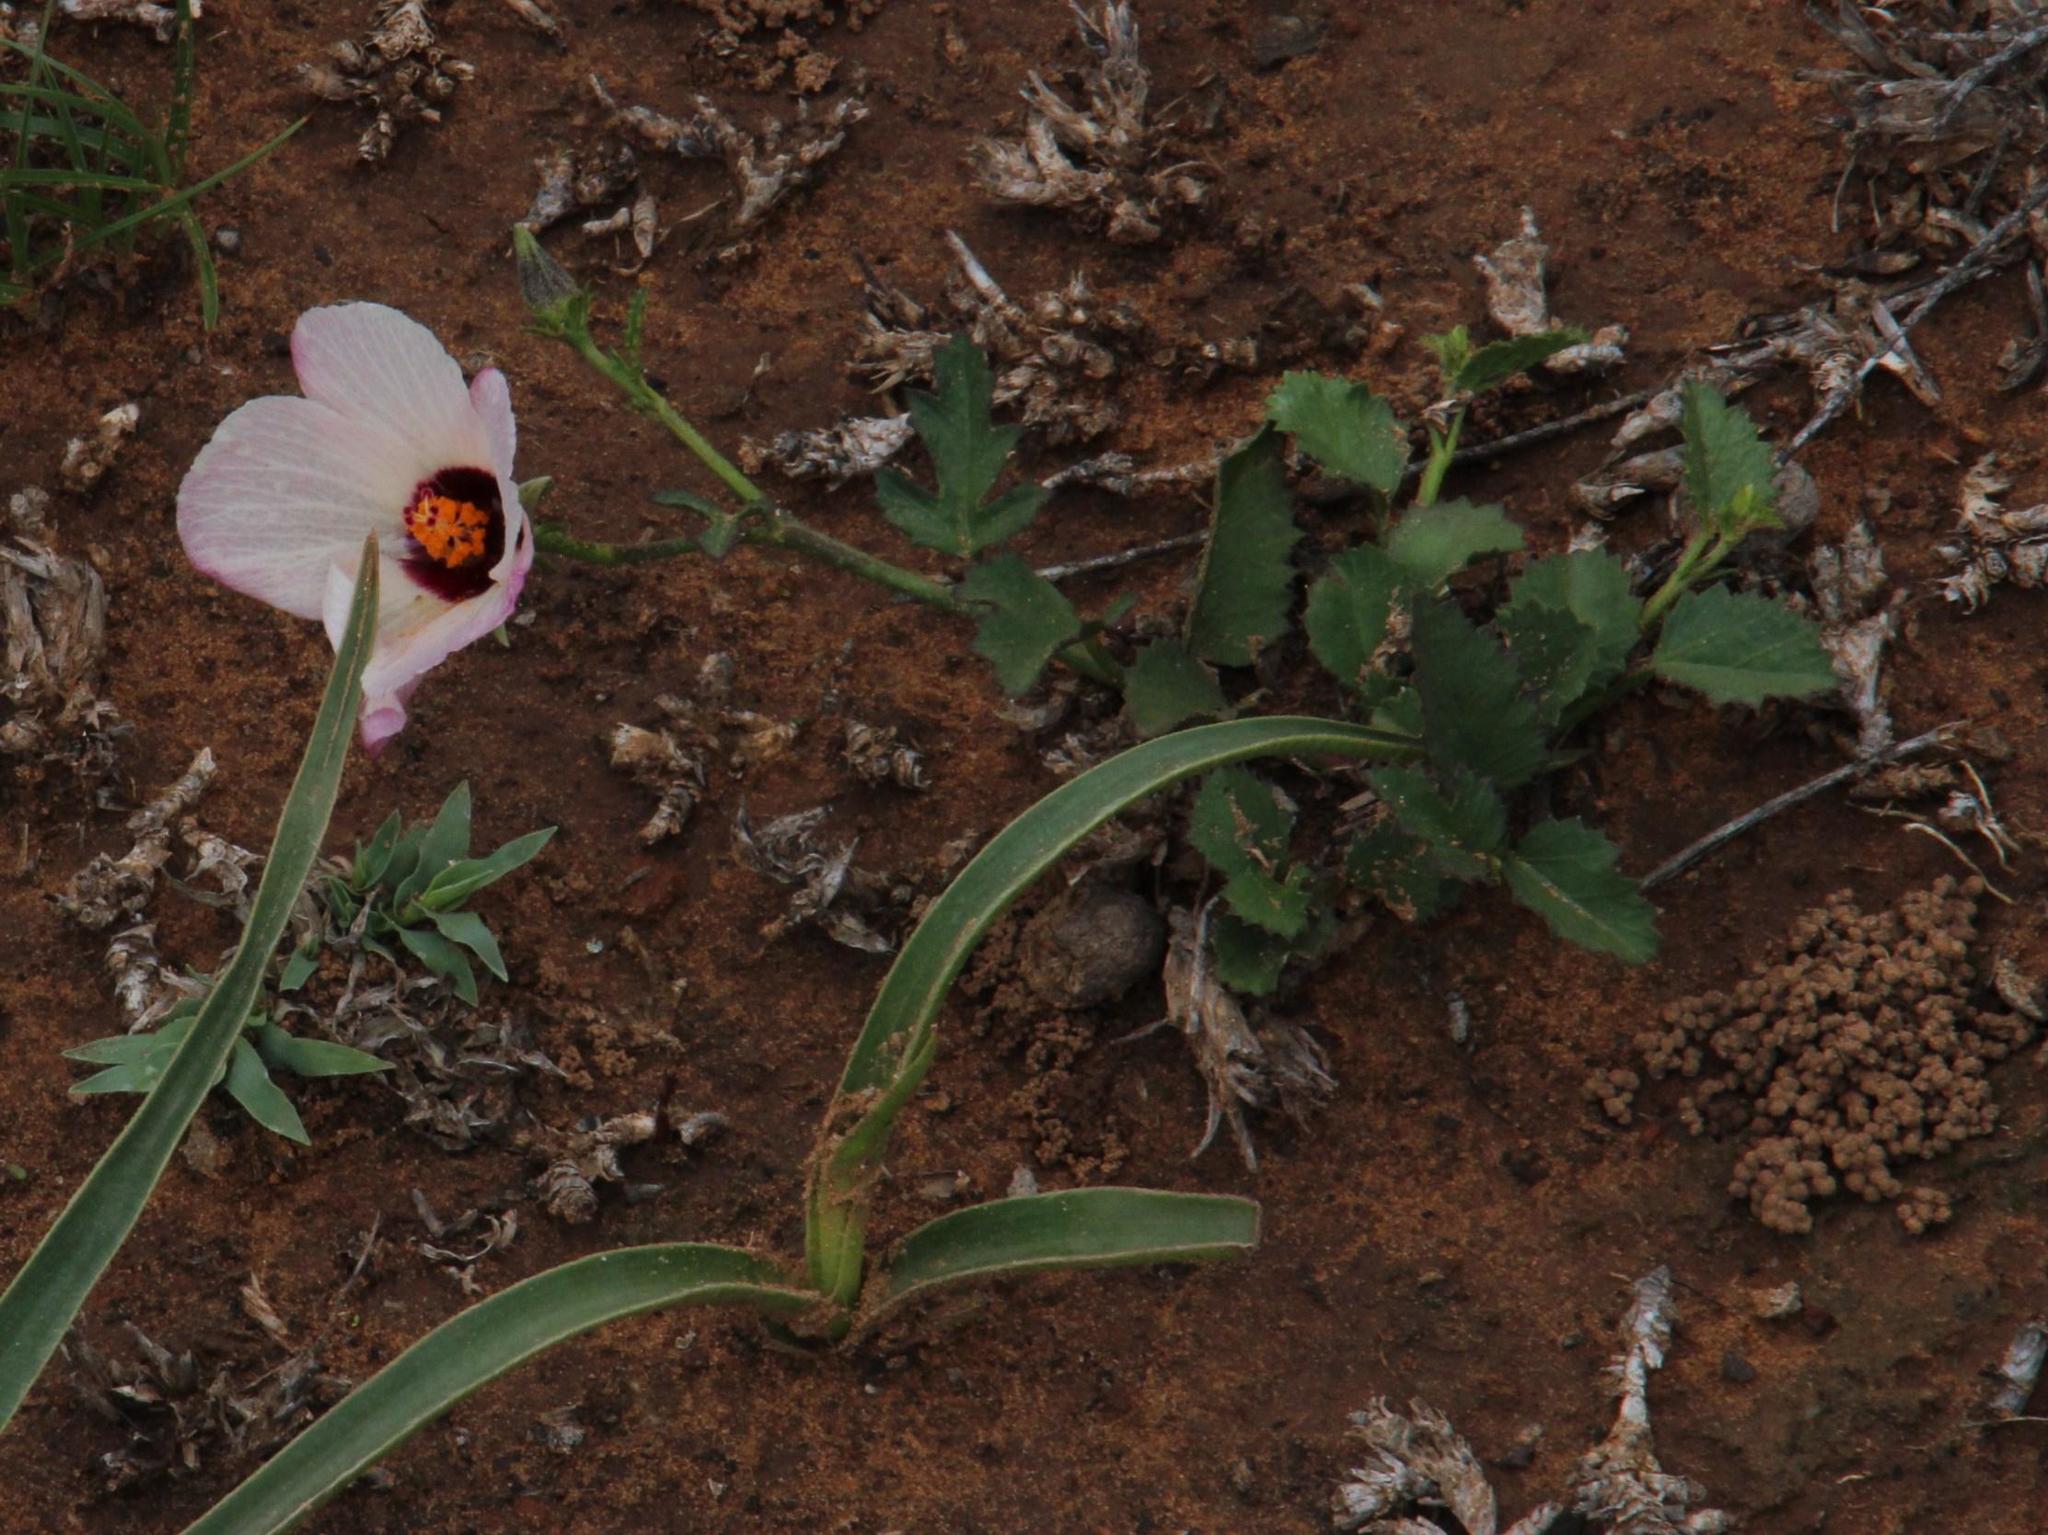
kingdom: Plantae
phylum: Tracheophyta
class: Magnoliopsida
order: Malvales
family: Malvaceae
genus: Hibiscus
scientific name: Hibiscus pusillus
